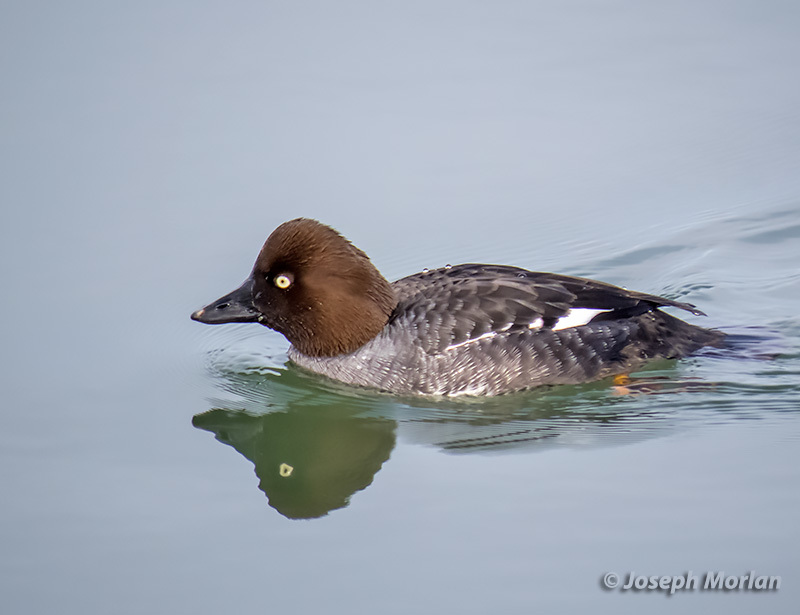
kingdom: Animalia
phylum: Chordata
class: Aves
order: Anseriformes
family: Anatidae
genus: Bucephala
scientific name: Bucephala clangula
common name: Common goldeneye
